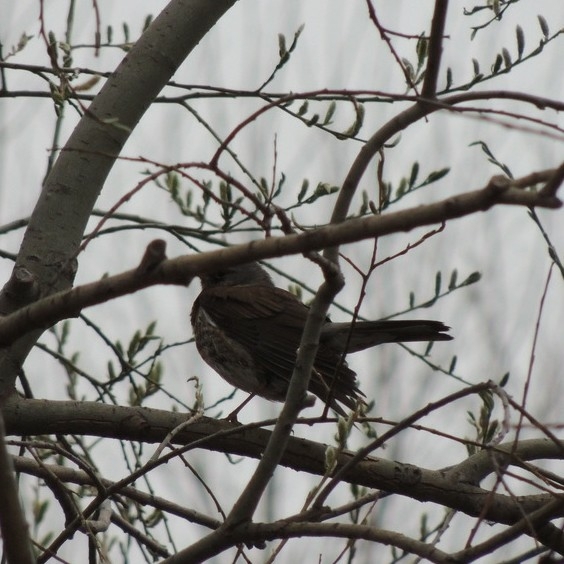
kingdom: Animalia
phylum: Chordata
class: Aves
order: Passeriformes
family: Turdidae
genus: Turdus
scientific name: Turdus pilaris
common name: Fieldfare
